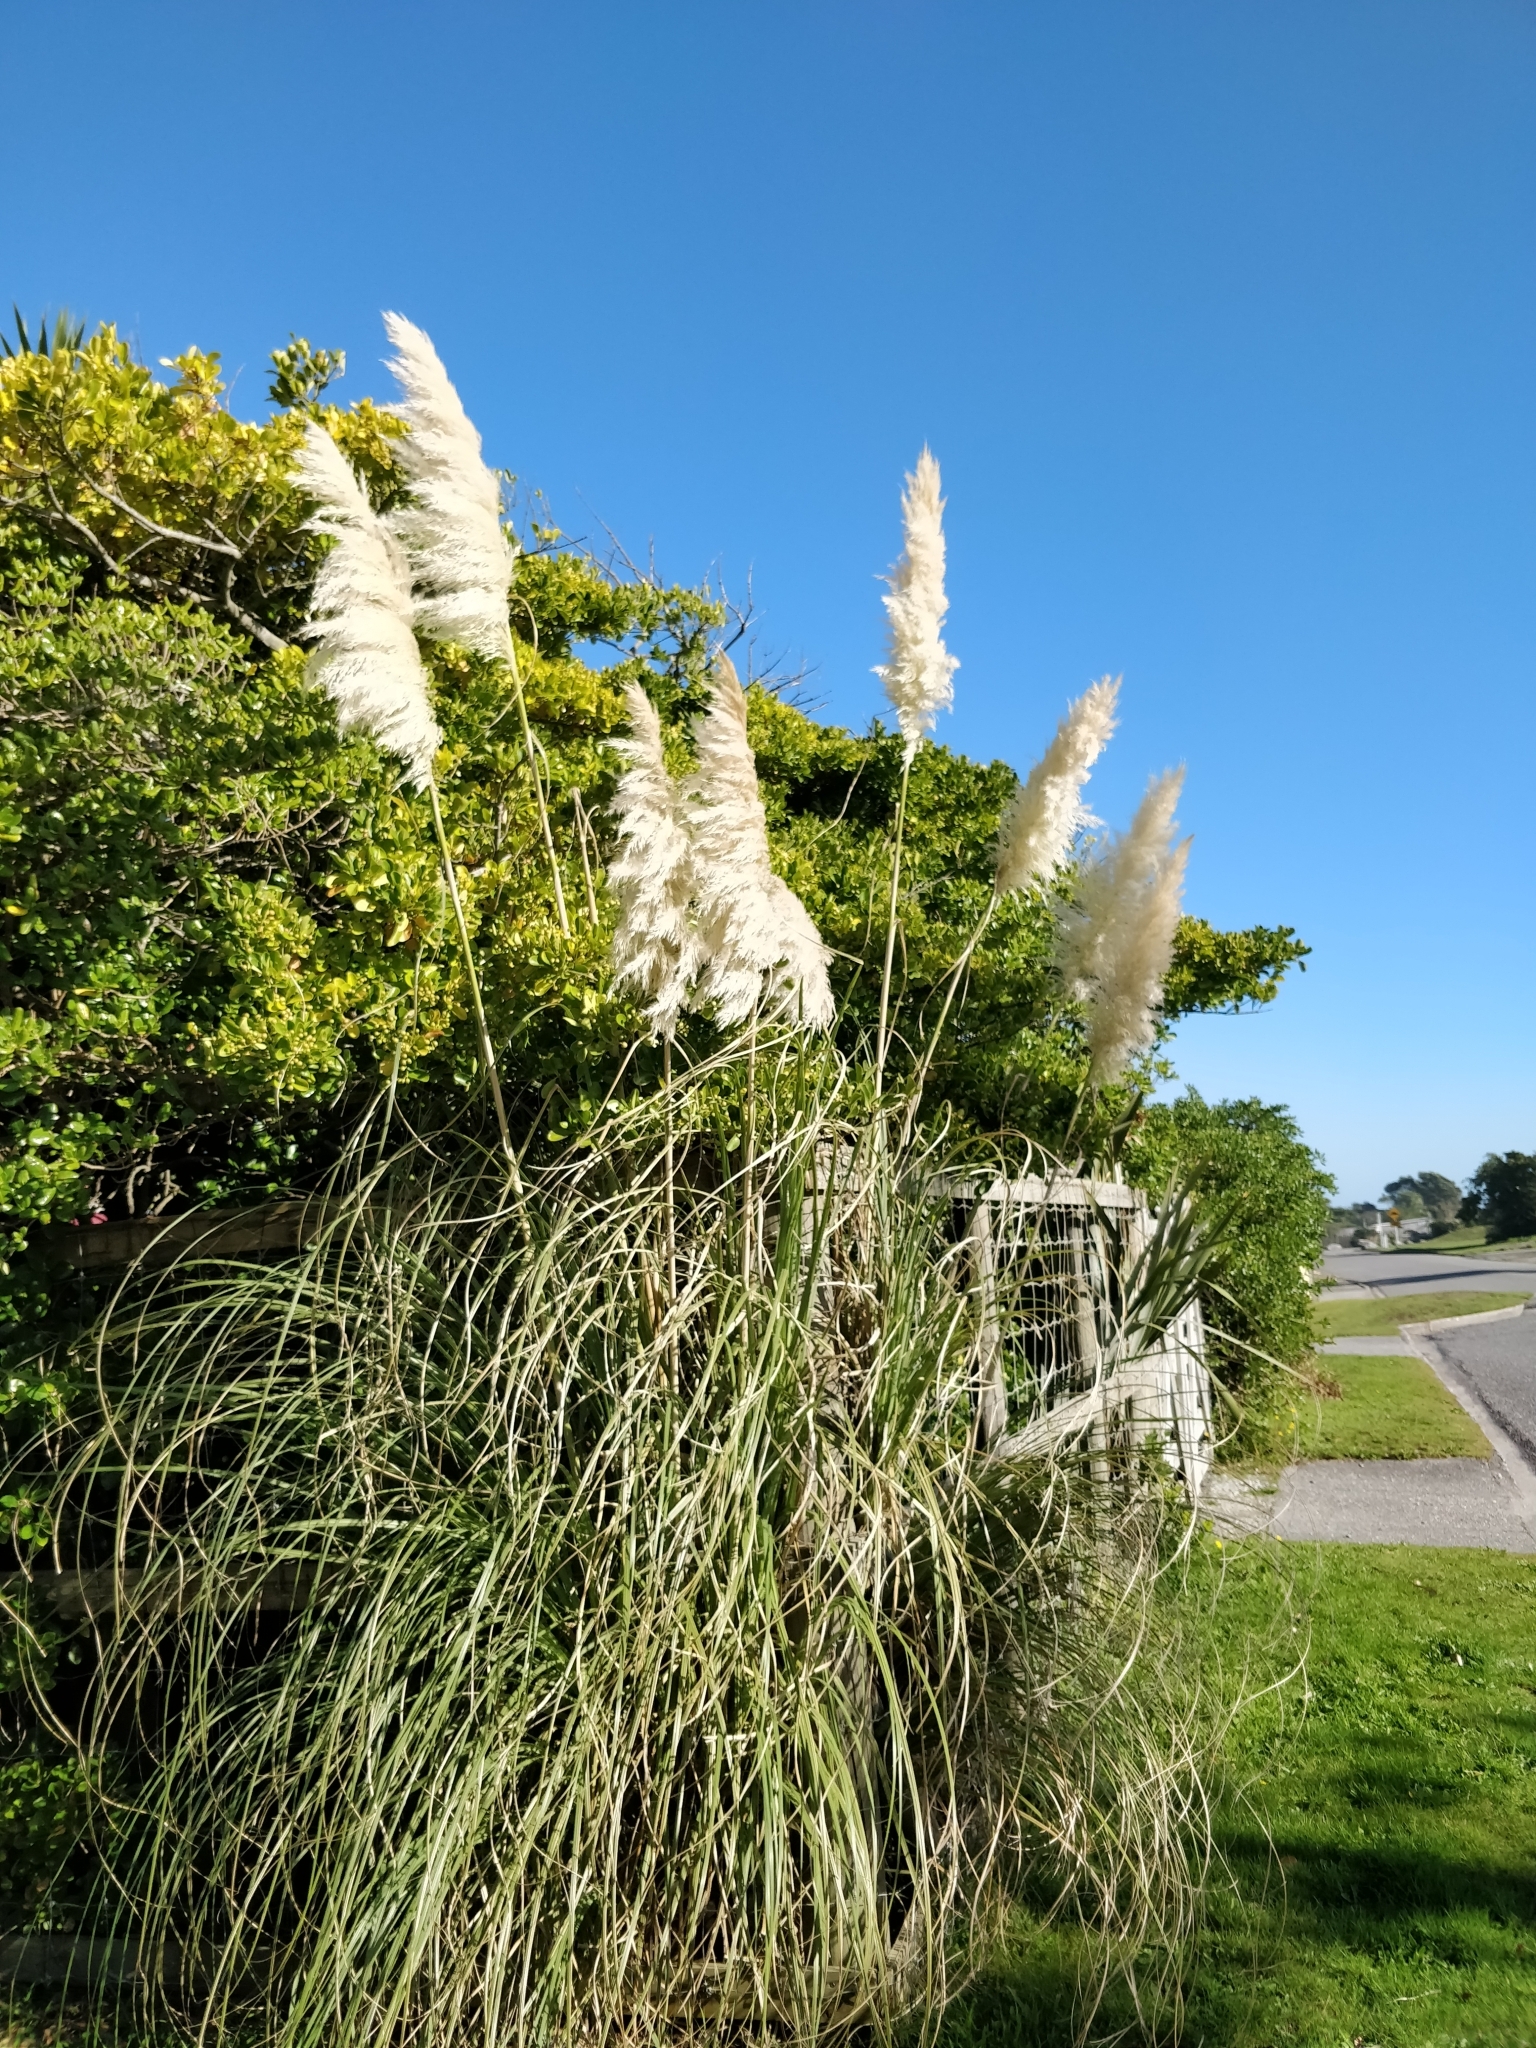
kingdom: Plantae
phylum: Tracheophyta
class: Liliopsida
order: Poales
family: Poaceae
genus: Cortaderia
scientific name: Cortaderia selloana
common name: Uruguayan pampas grass
